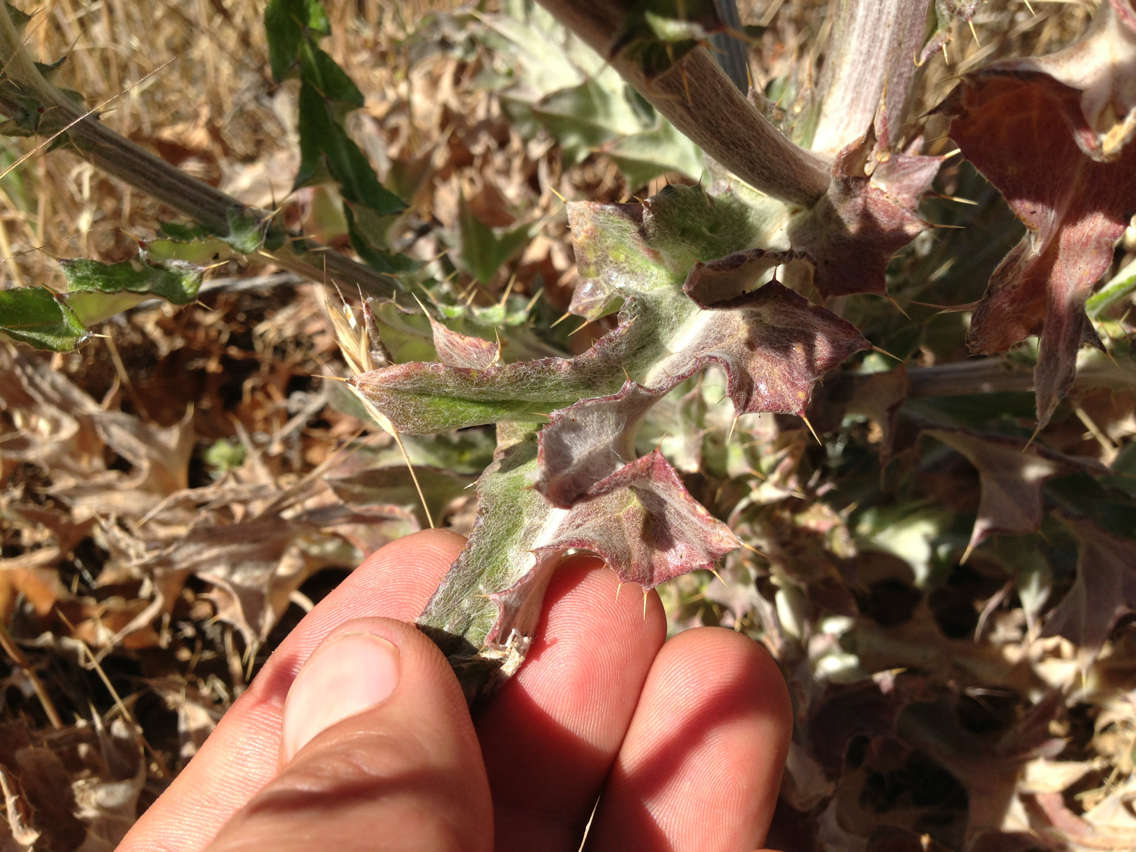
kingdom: Plantae
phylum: Tracheophyta
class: Magnoliopsida
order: Asterales
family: Asteraceae
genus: Cirsium
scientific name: Cirsium occidentale
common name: Western thistle
